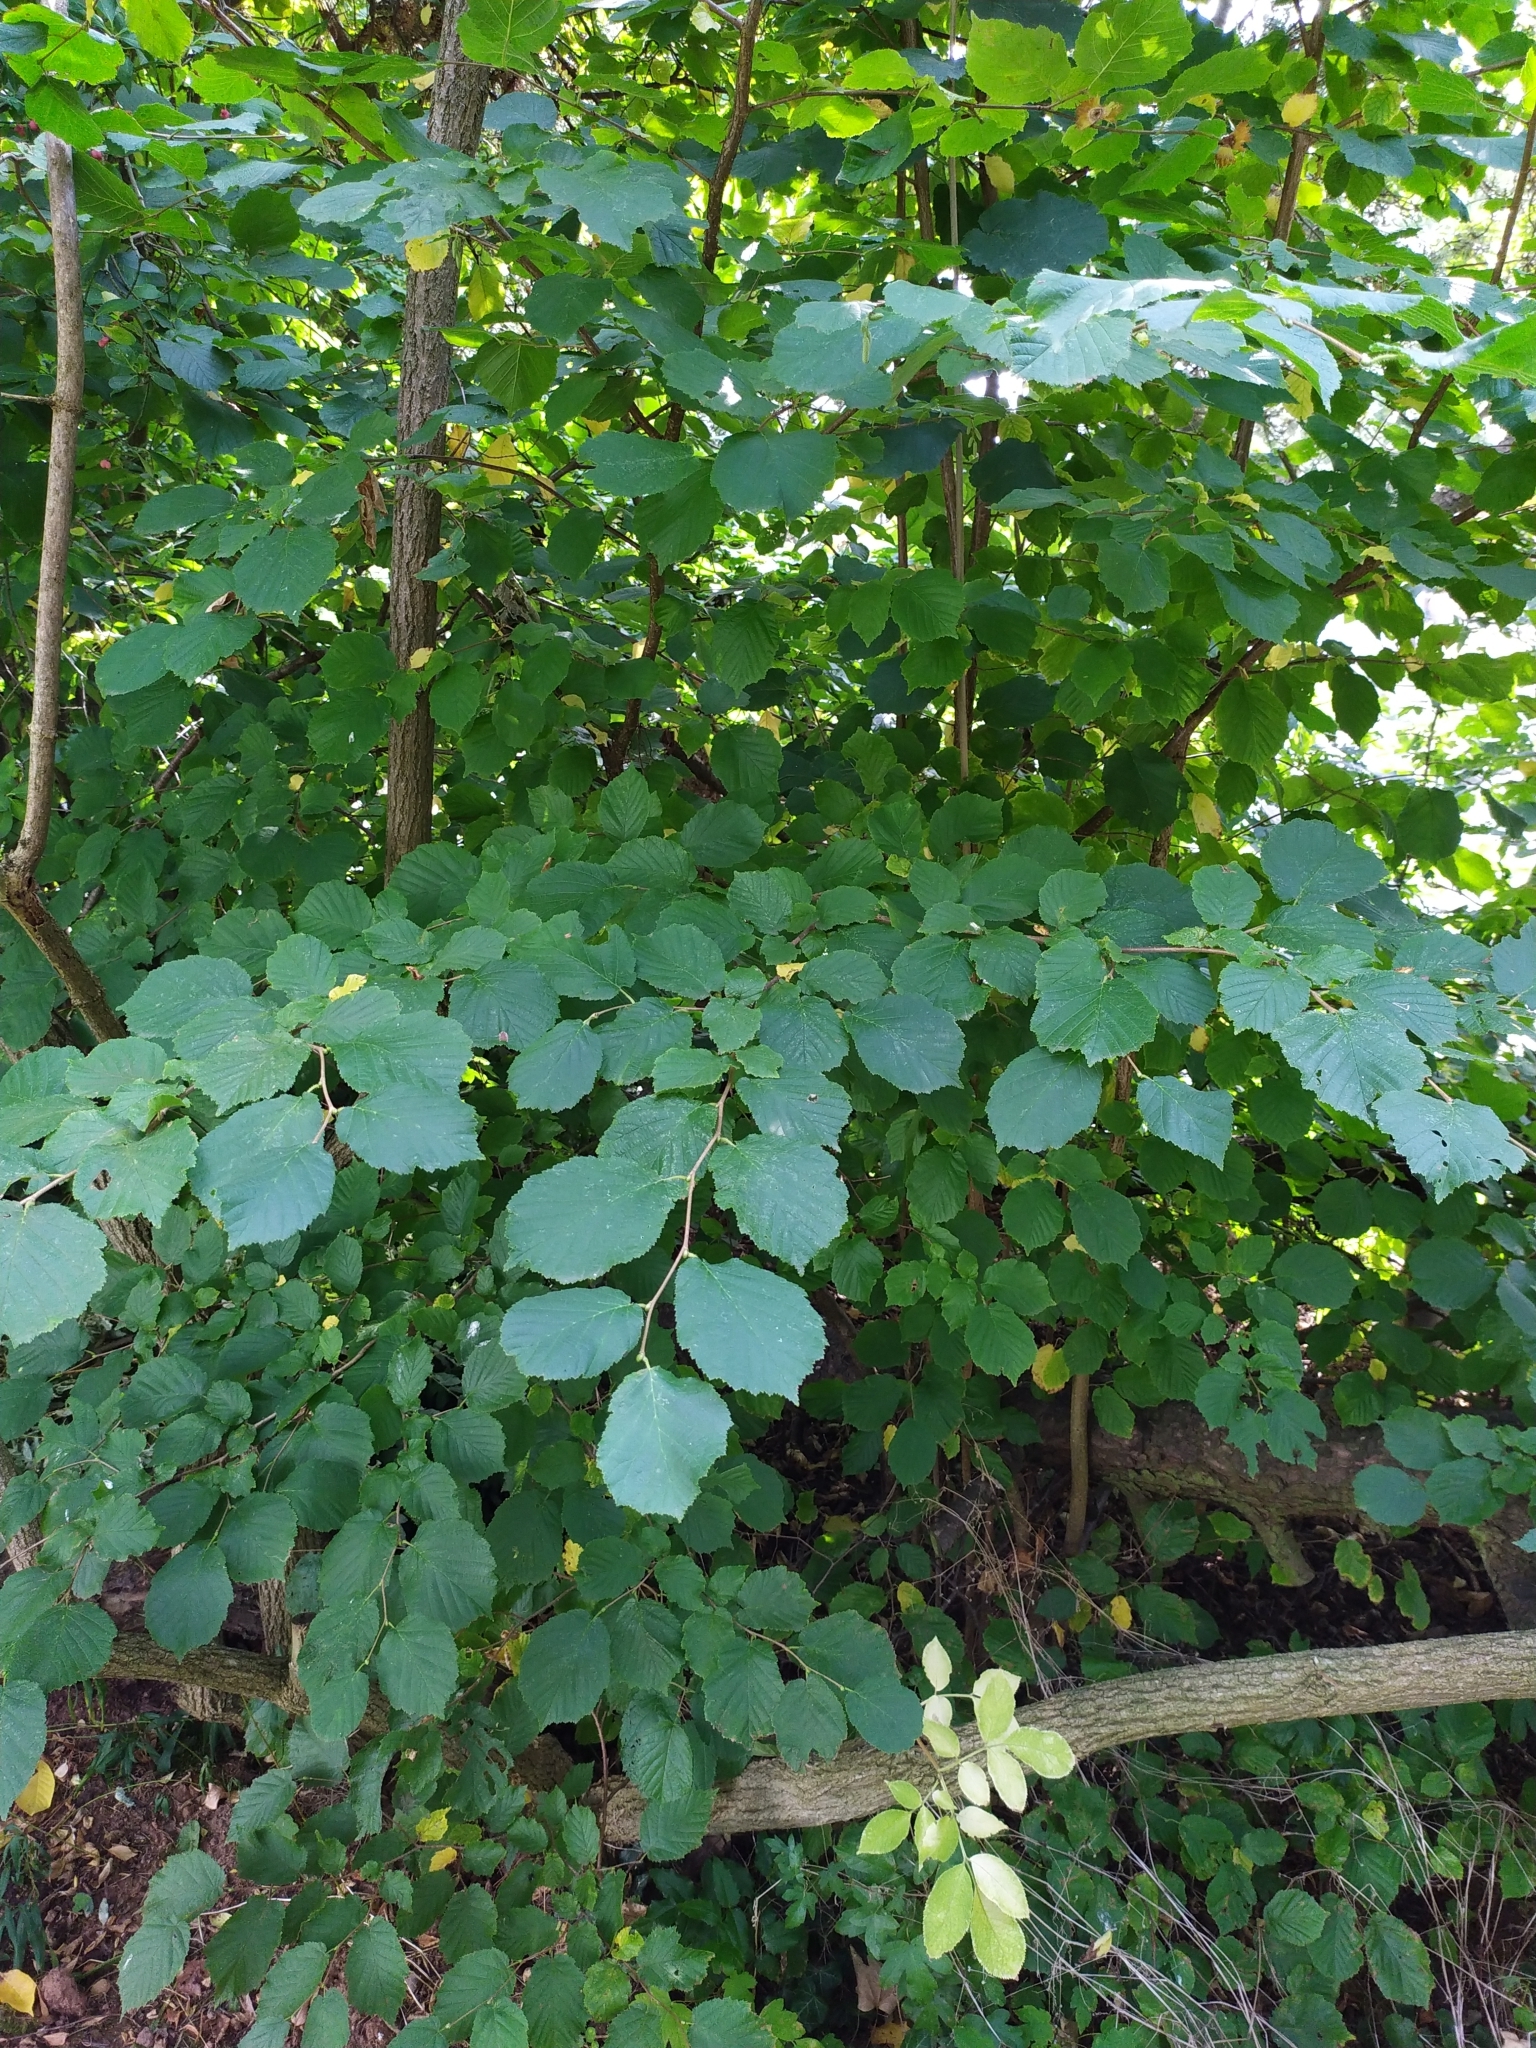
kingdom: Plantae
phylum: Tracheophyta
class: Magnoliopsida
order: Fagales
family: Betulaceae
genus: Corylus
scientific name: Corylus avellana
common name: European hazel
